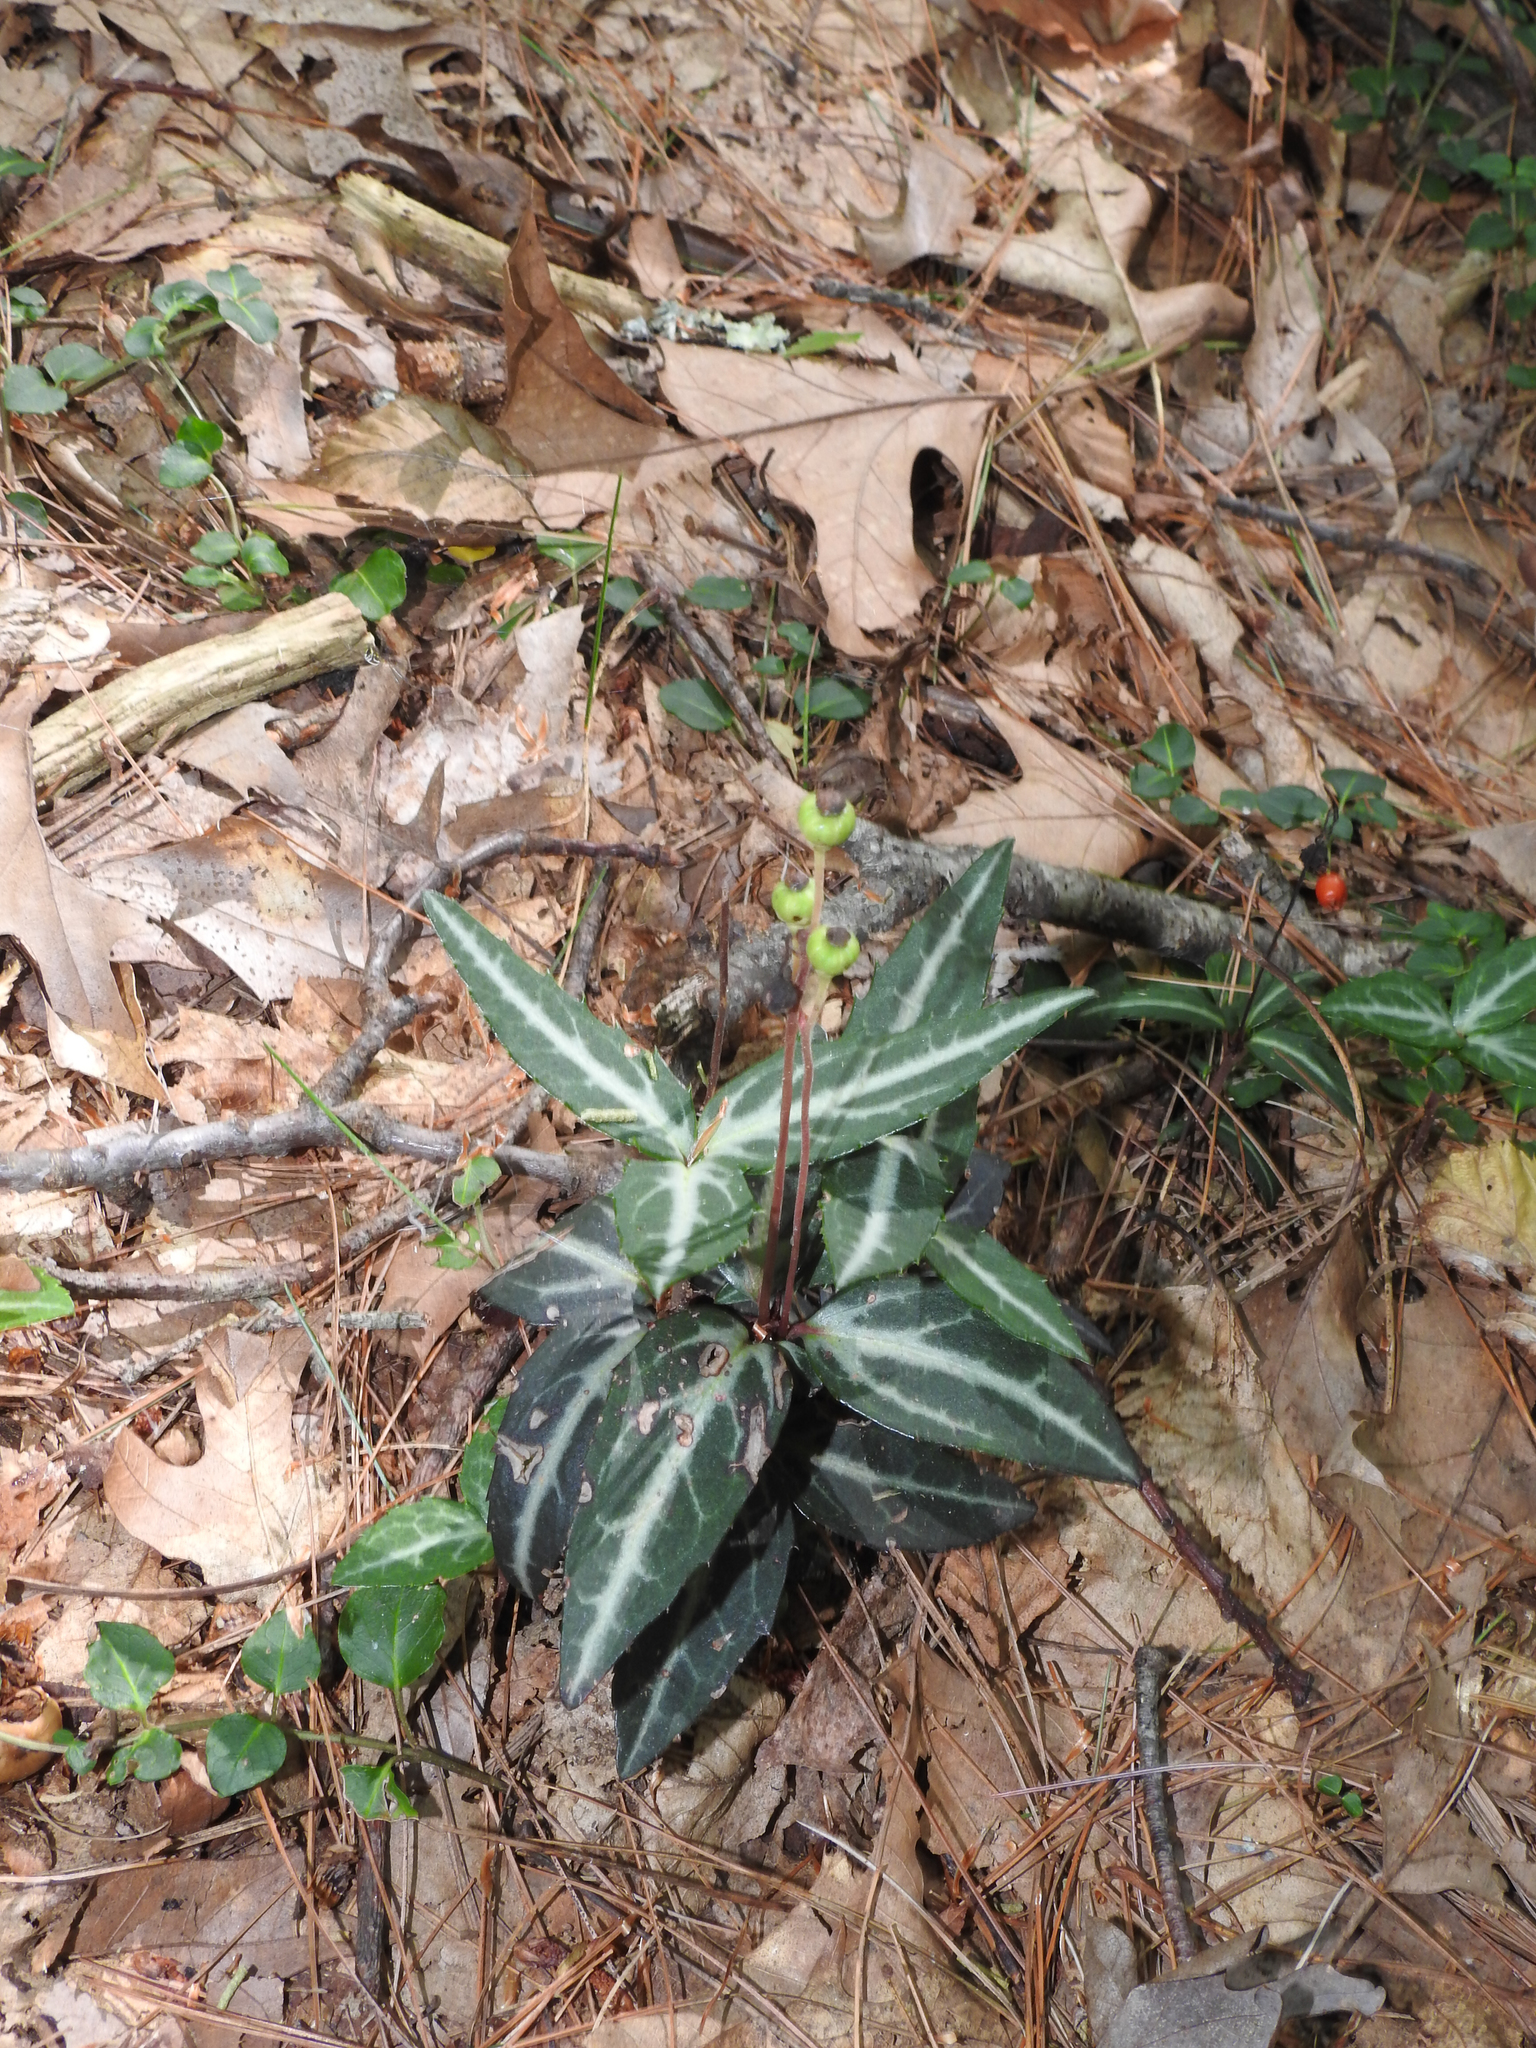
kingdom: Plantae
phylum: Tracheophyta
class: Magnoliopsida
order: Ericales
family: Ericaceae
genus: Chimaphila
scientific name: Chimaphila maculata
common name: Spotted pipsissewa
